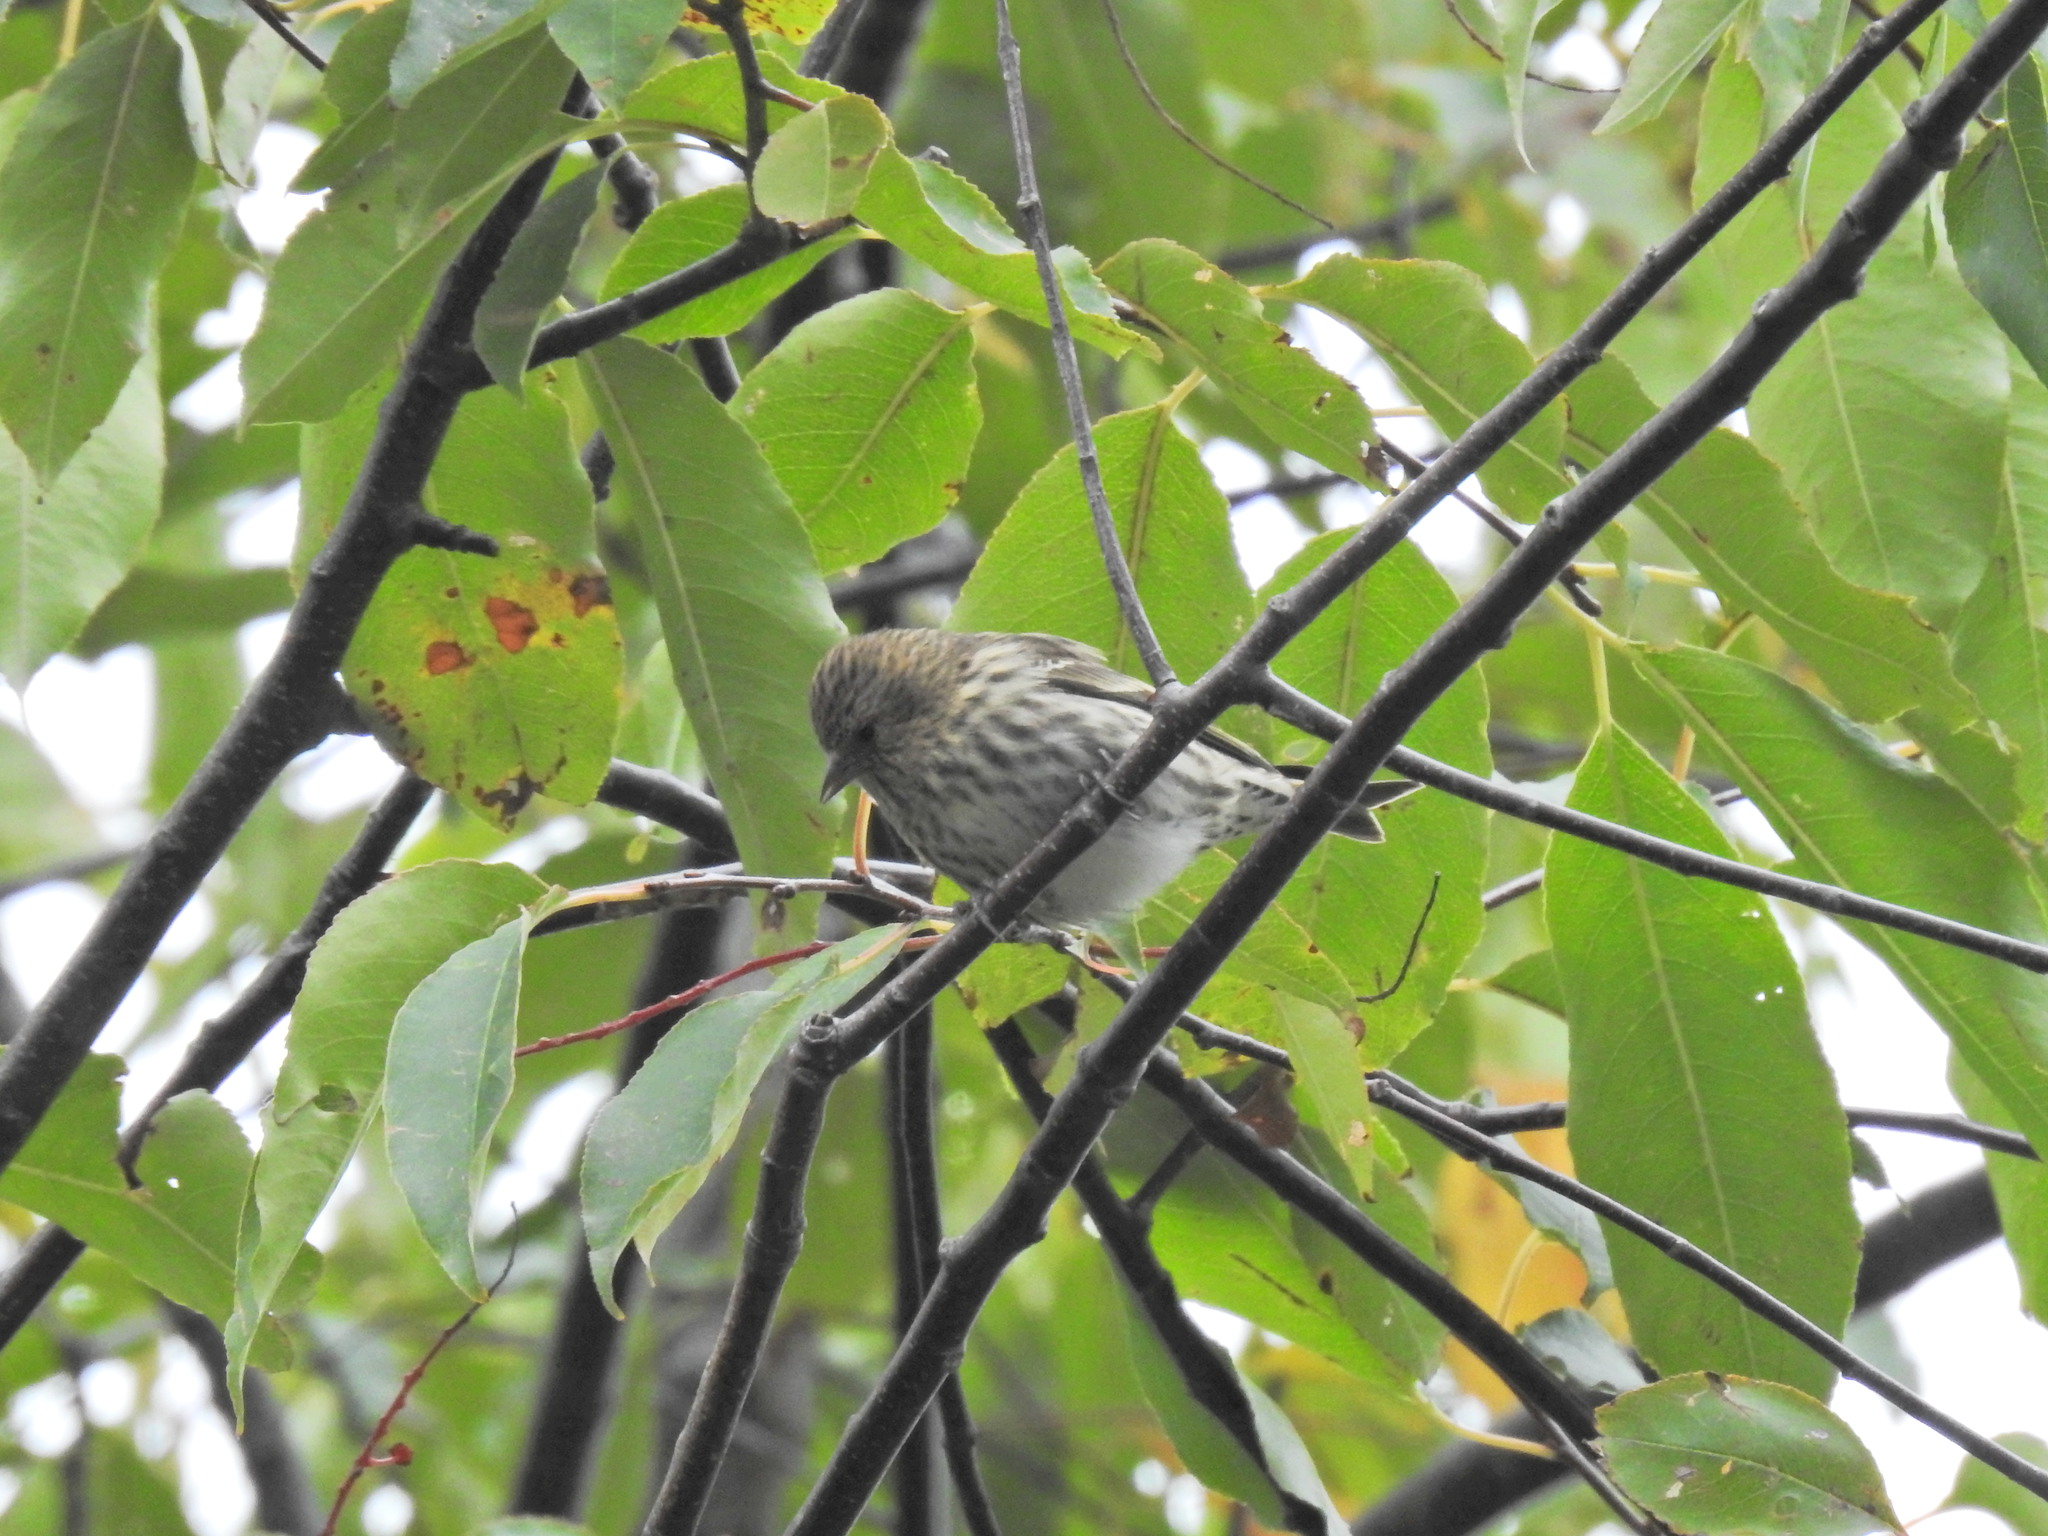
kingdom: Animalia
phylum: Chordata
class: Aves
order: Passeriformes
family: Fringillidae
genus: Spinus
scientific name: Spinus pinus
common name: Pine siskin
